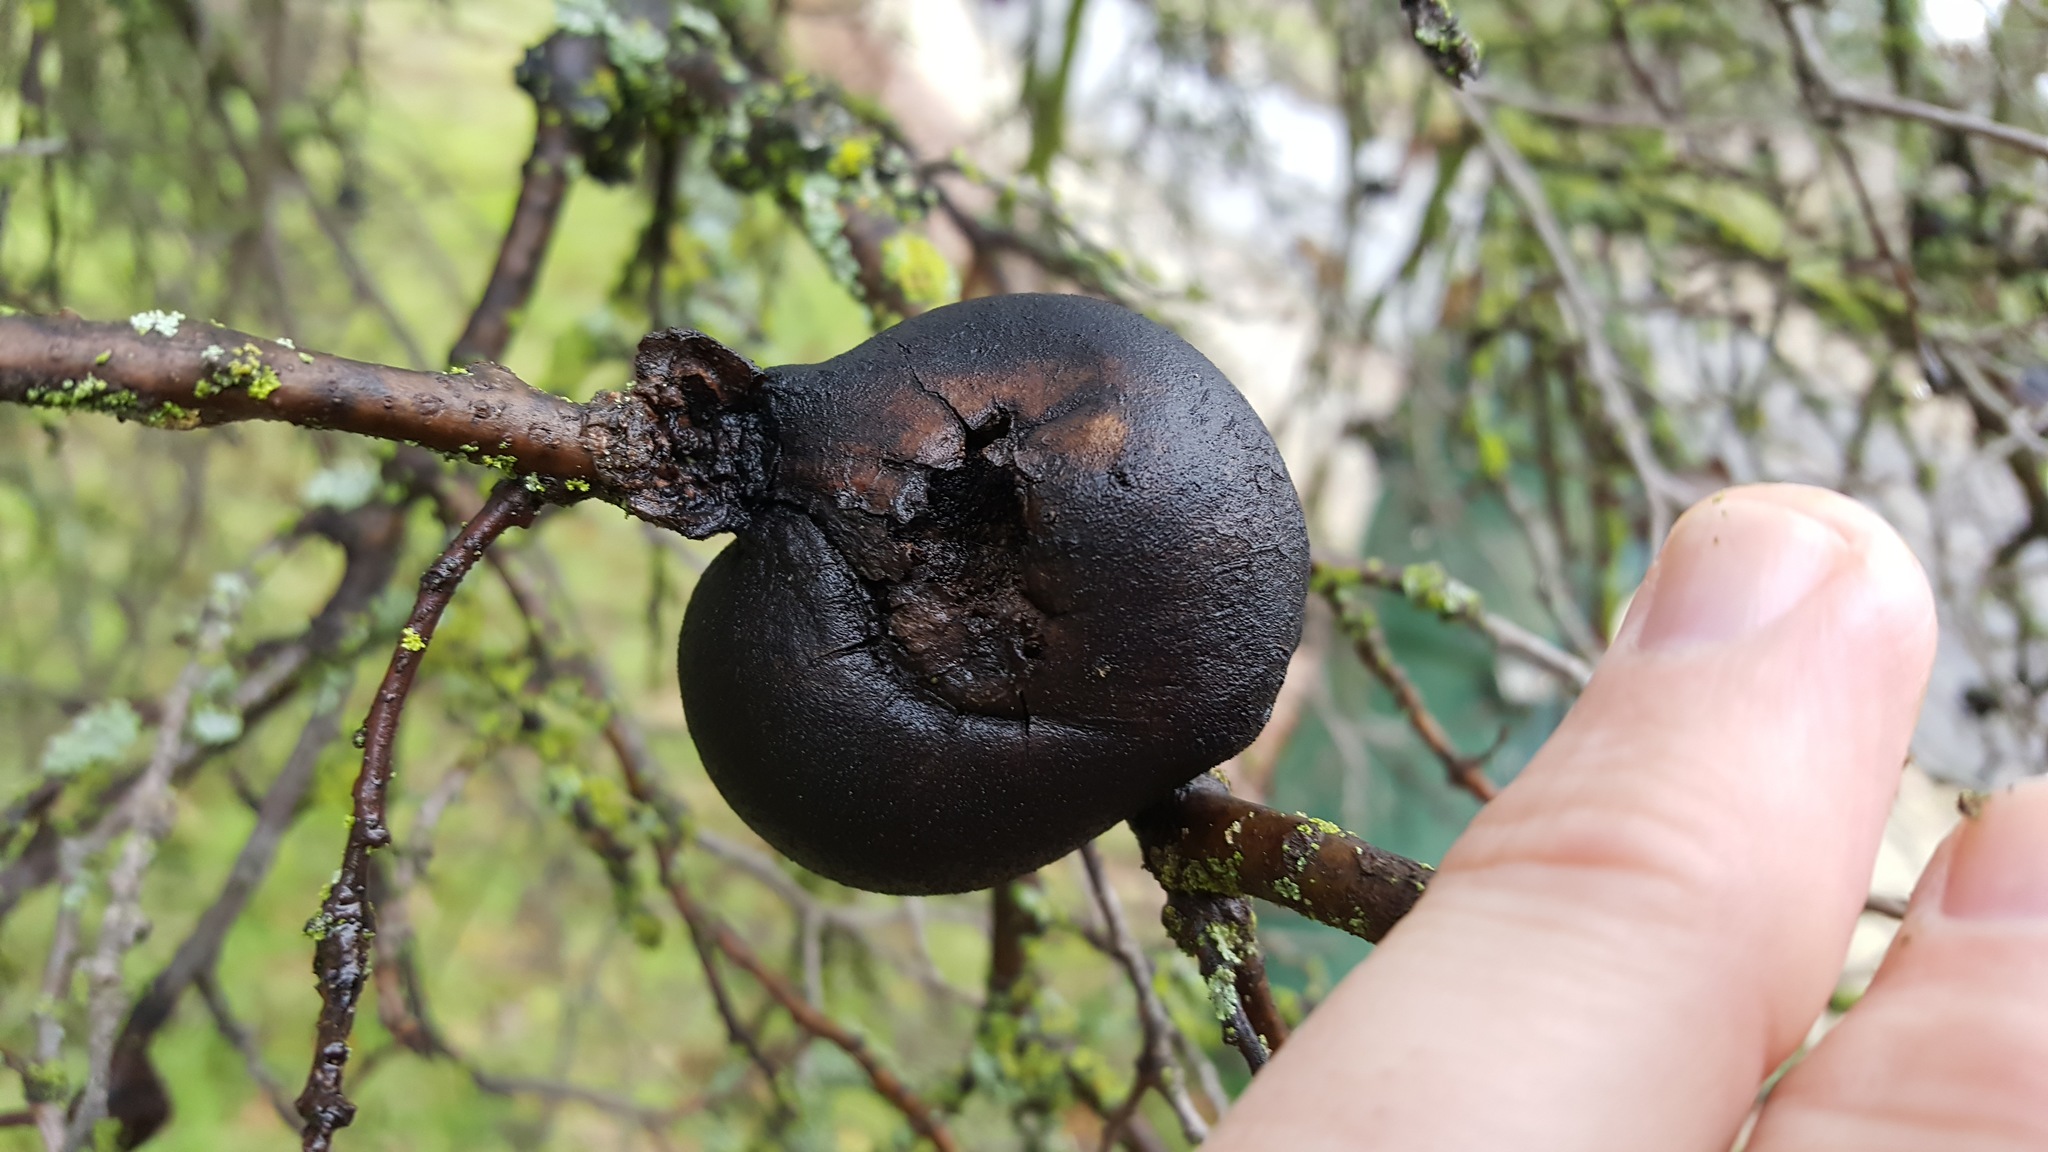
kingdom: Animalia
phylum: Arthropoda
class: Insecta
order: Hymenoptera
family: Cynipidae
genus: Andricus
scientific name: Andricus quercuscalifornicus
